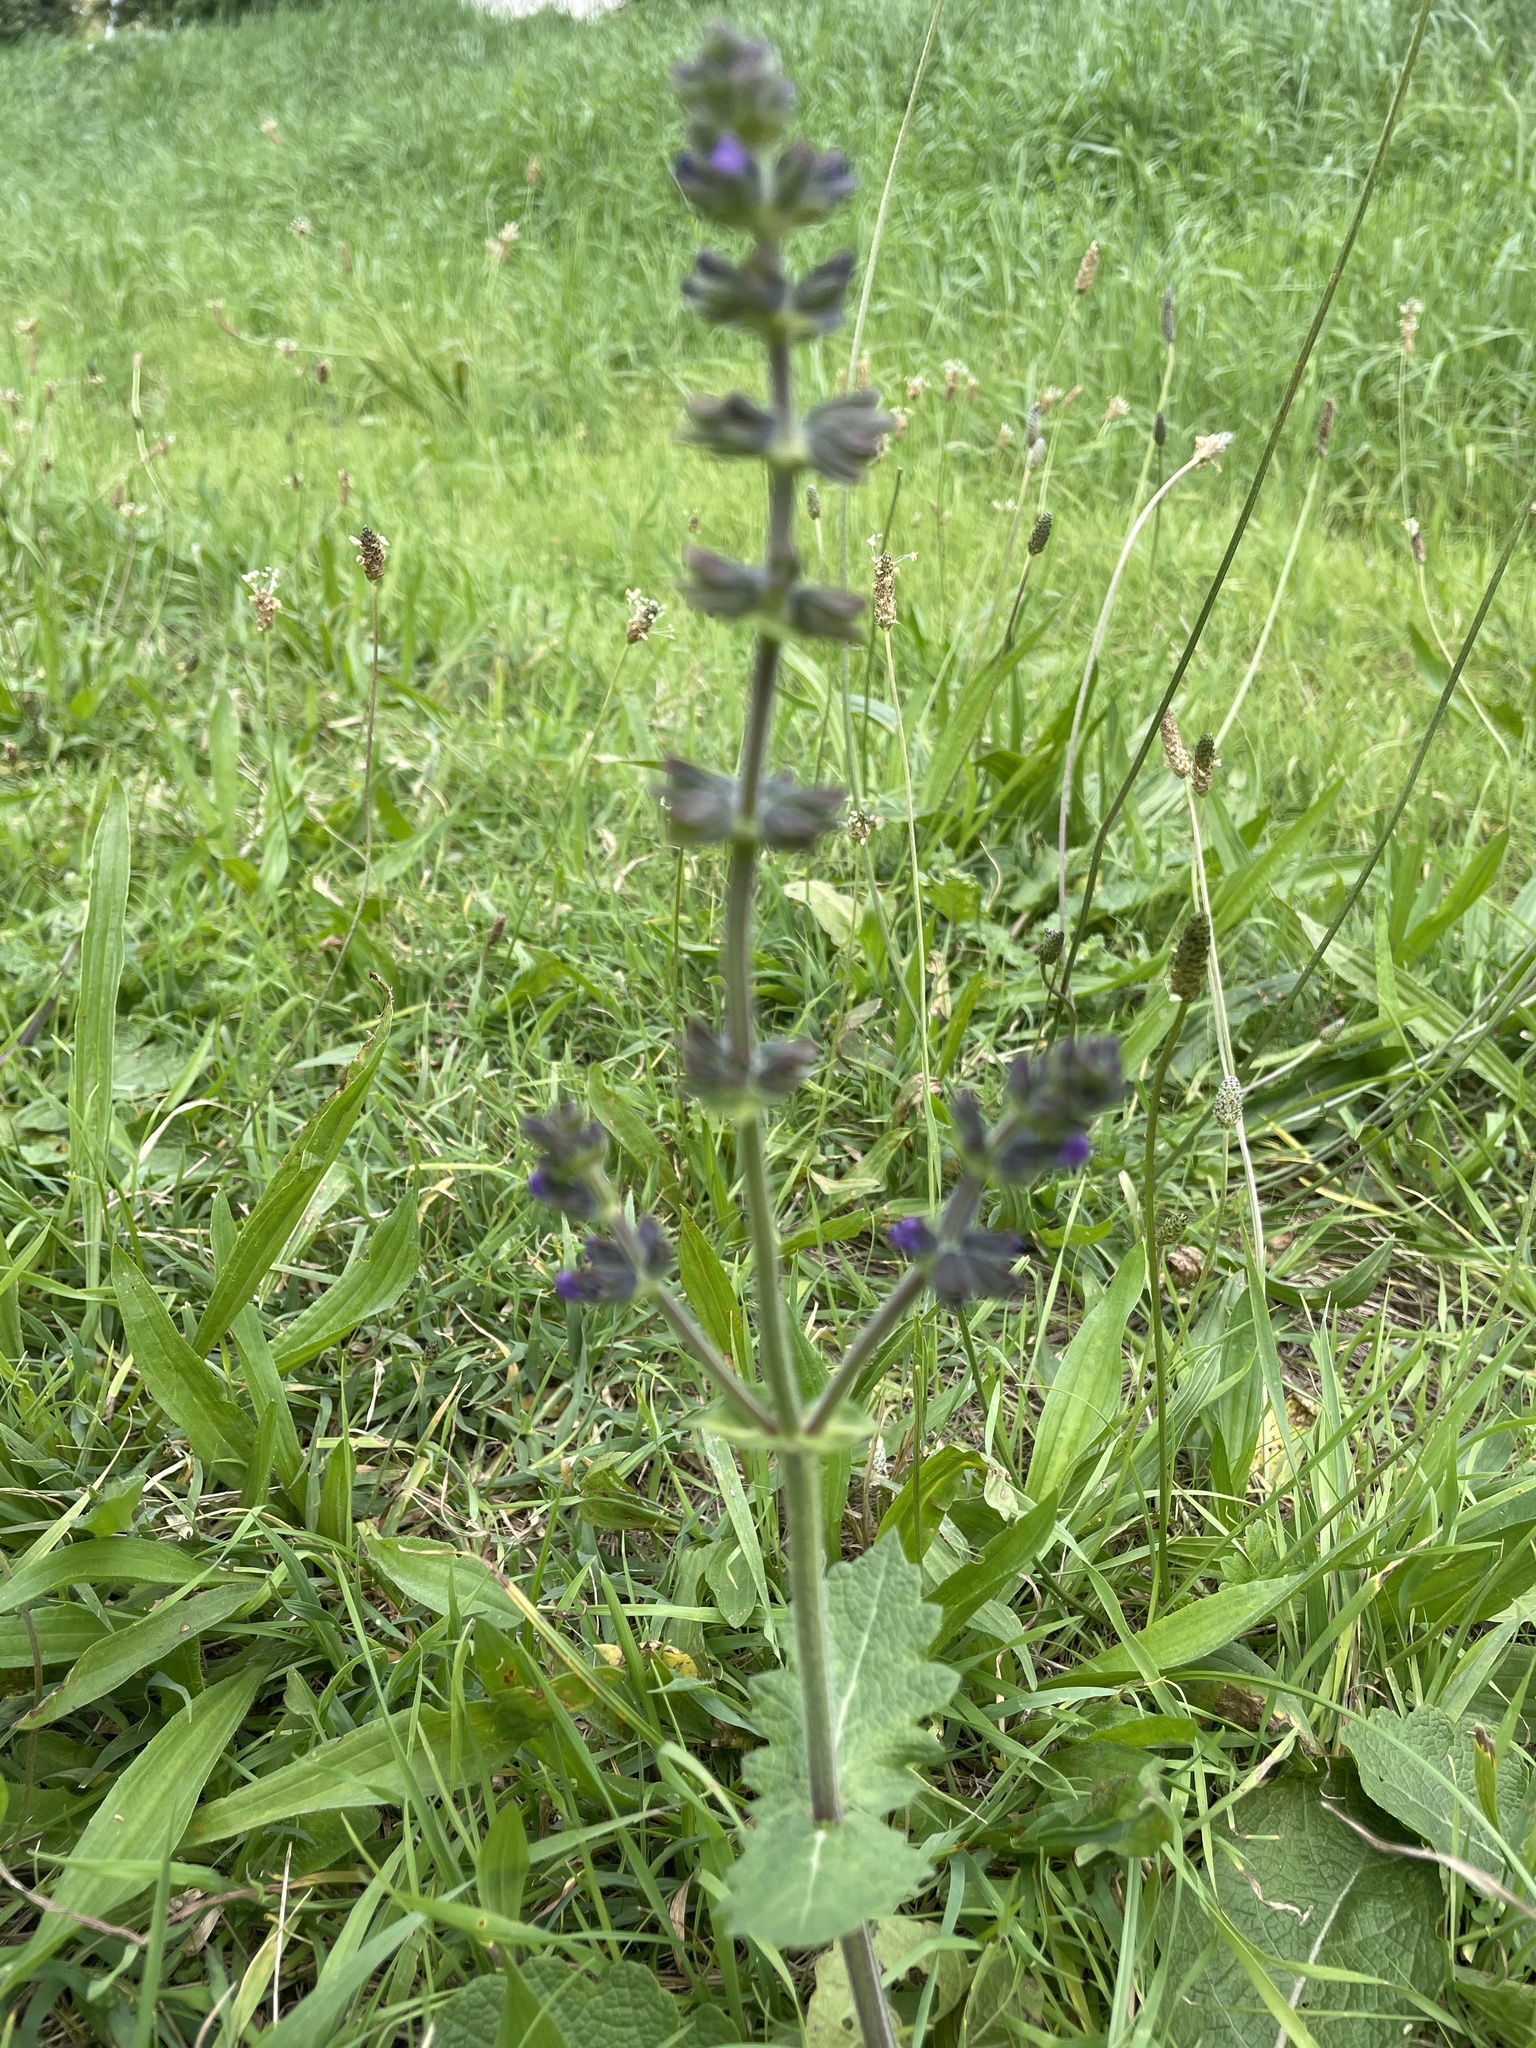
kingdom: Plantae
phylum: Tracheophyta
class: Magnoliopsida
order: Lamiales
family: Lamiaceae
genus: Salvia
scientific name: Salvia pratensis
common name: Meadow sage
